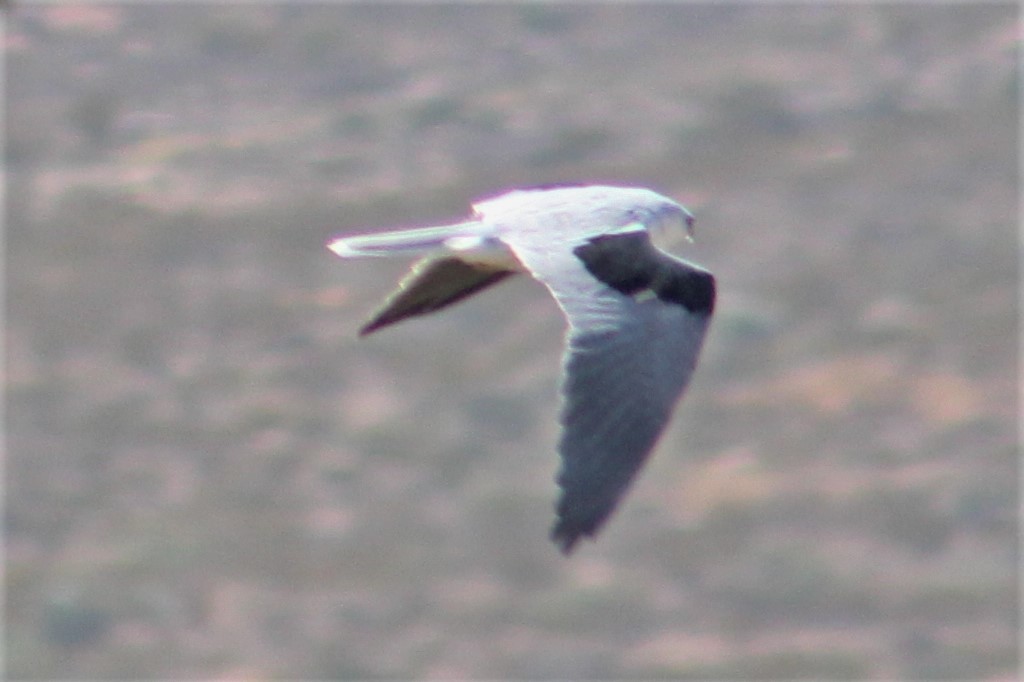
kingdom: Animalia
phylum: Chordata
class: Aves
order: Accipitriformes
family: Accipitridae
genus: Elanus
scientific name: Elanus leucurus
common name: White-tailed kite
